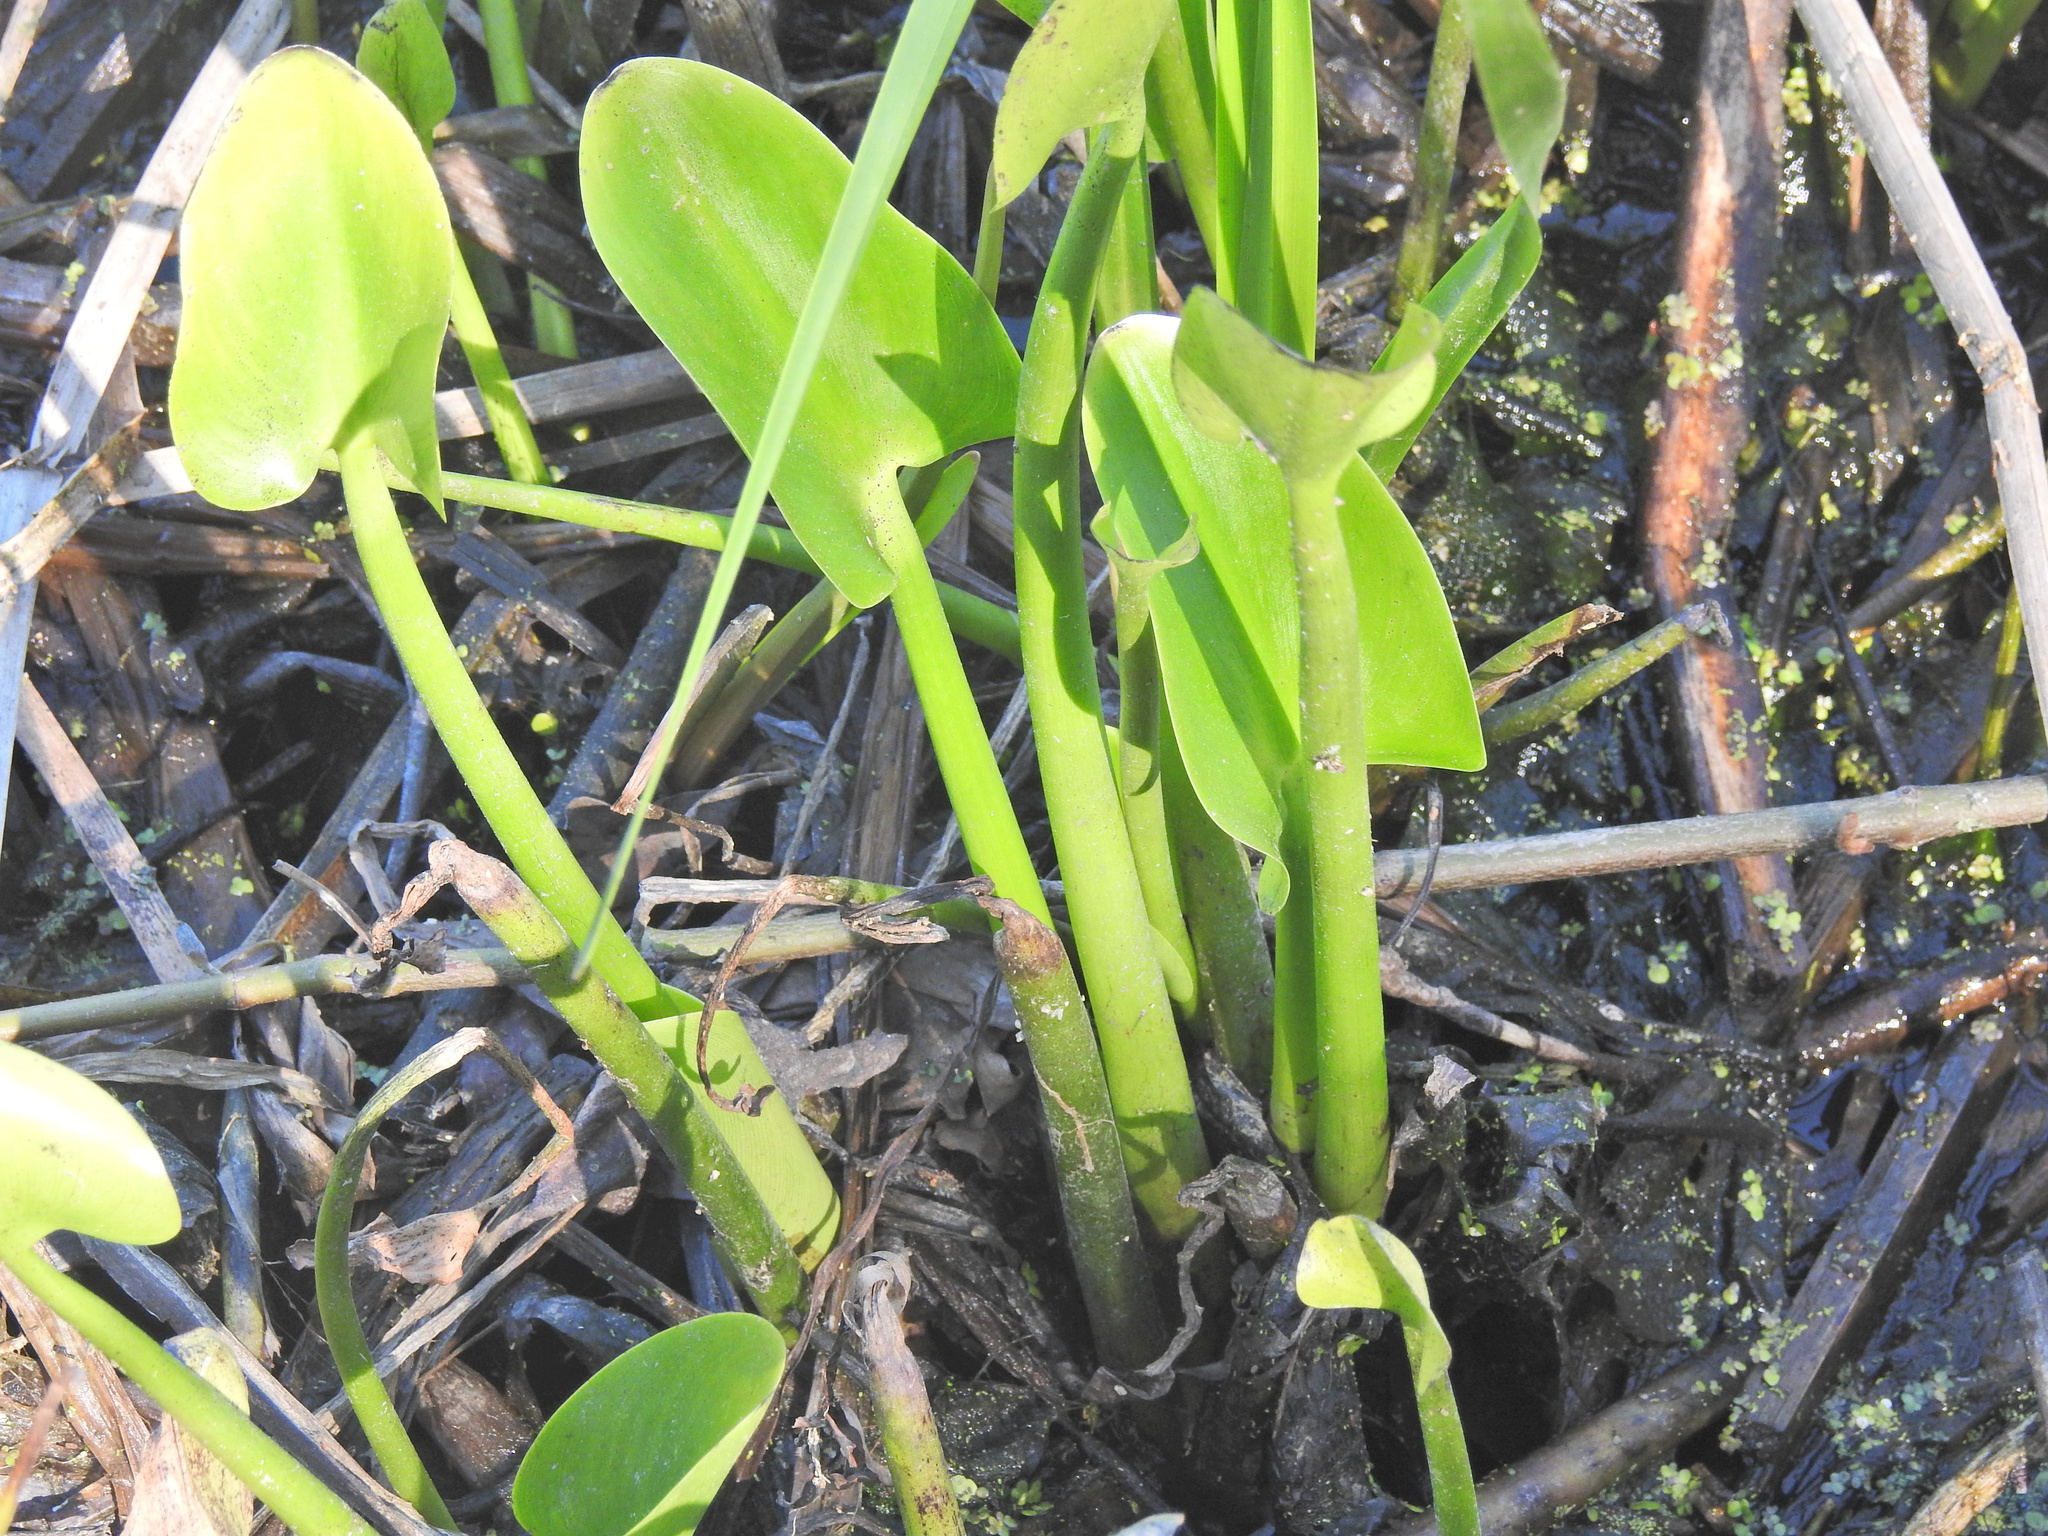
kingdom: Plantae
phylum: Tracheophyta
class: Liliopsida
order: Commelinales
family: Pontederiaceae
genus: Pontederia
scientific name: Pontederia cordata
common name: Pickerelweed
